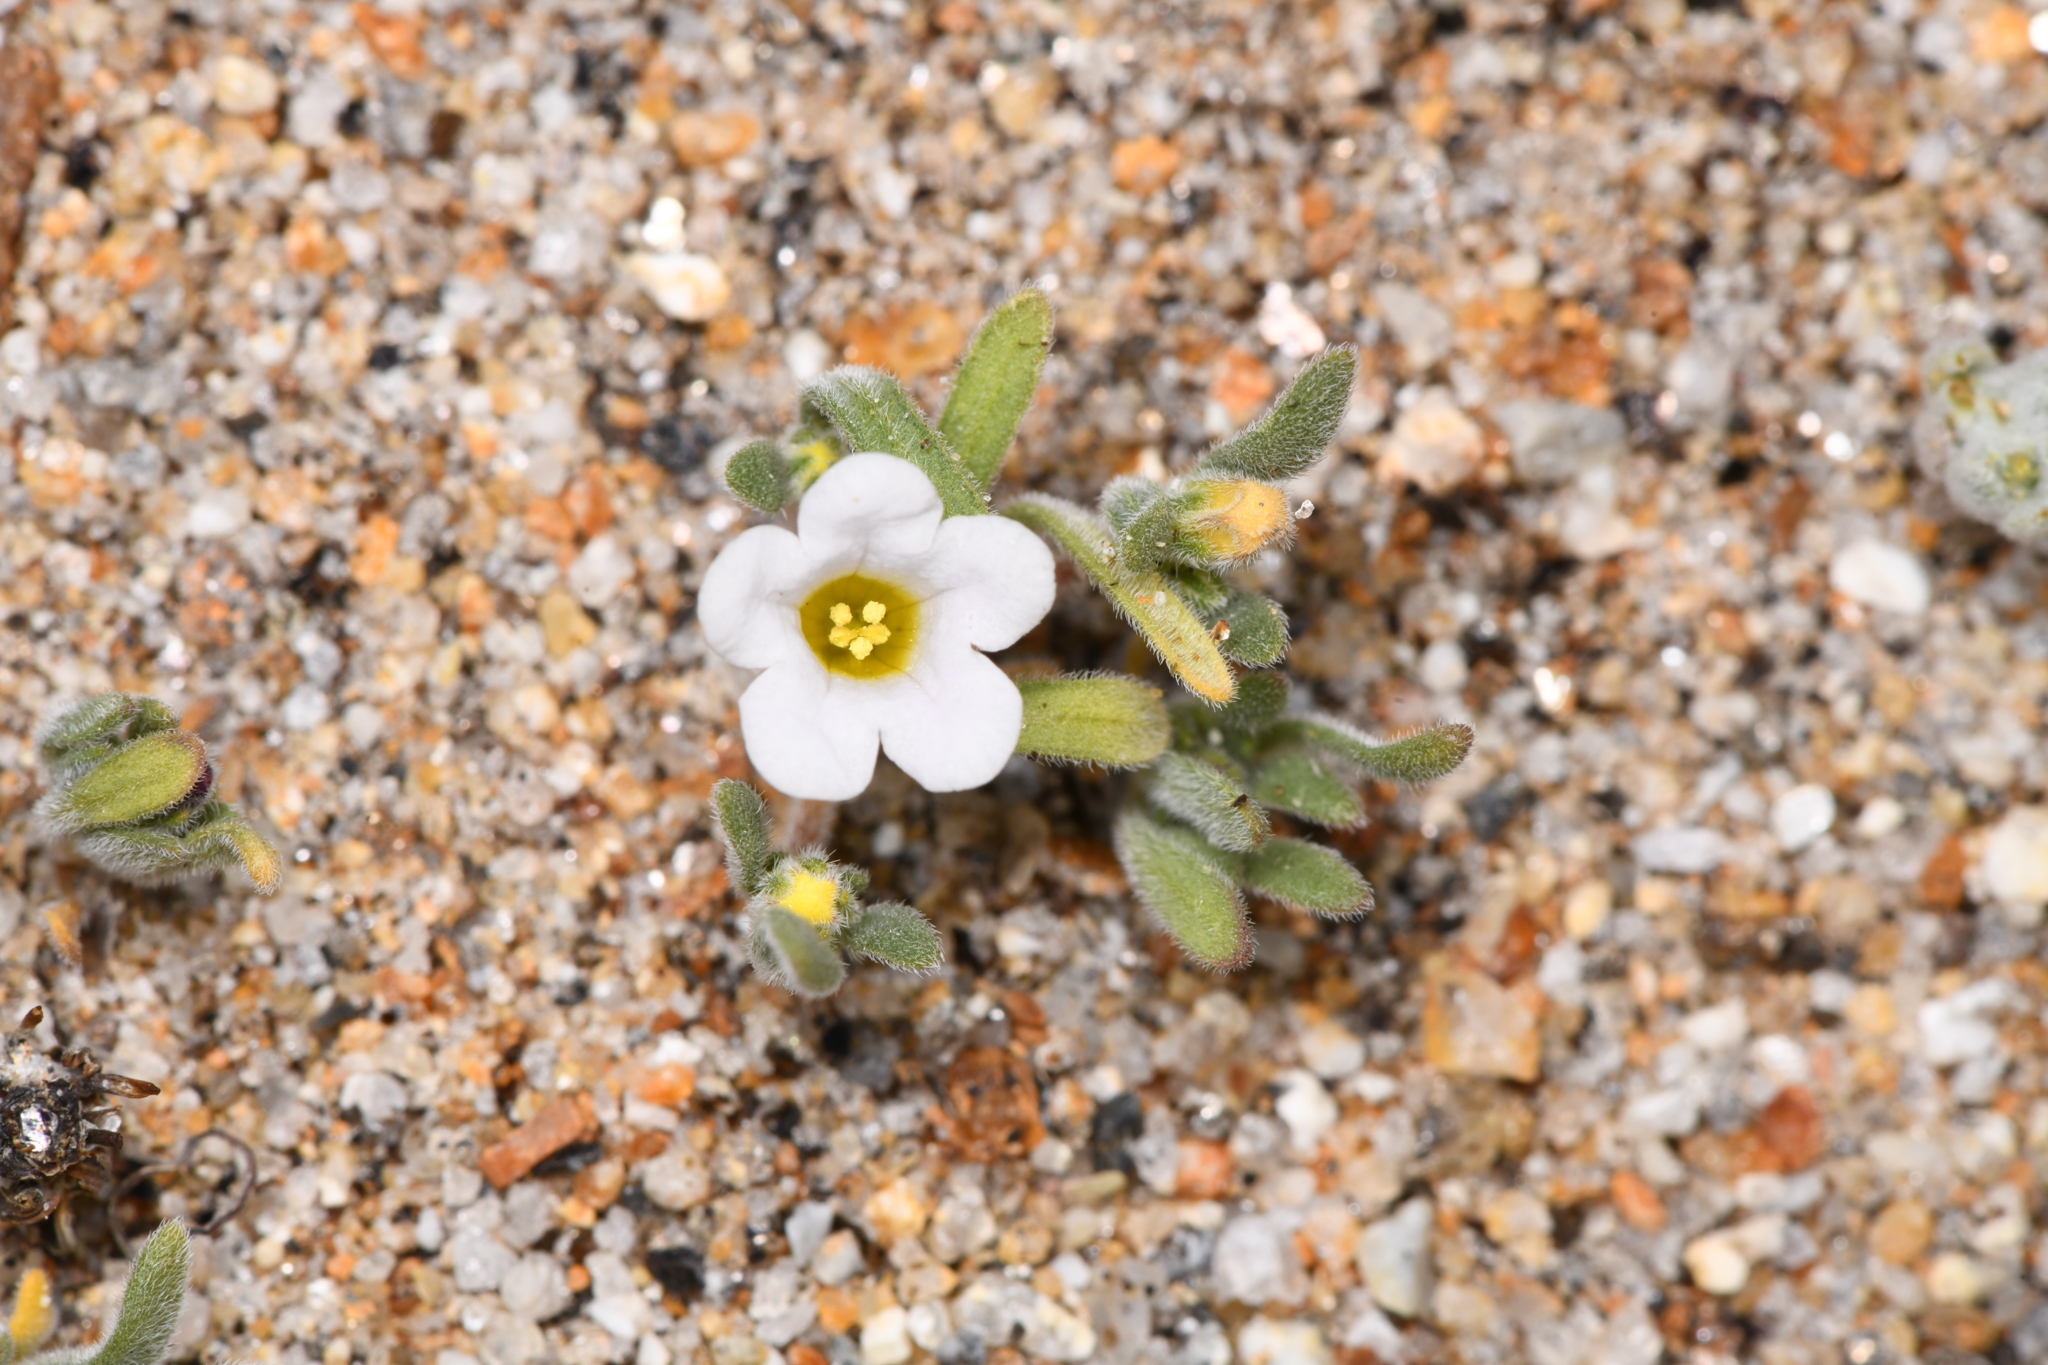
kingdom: Plantae
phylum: Tracheophyta
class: Magnoliopsida
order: Boraginales
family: Namaceae
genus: Nama
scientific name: Nama demissa
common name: Leafy nama
